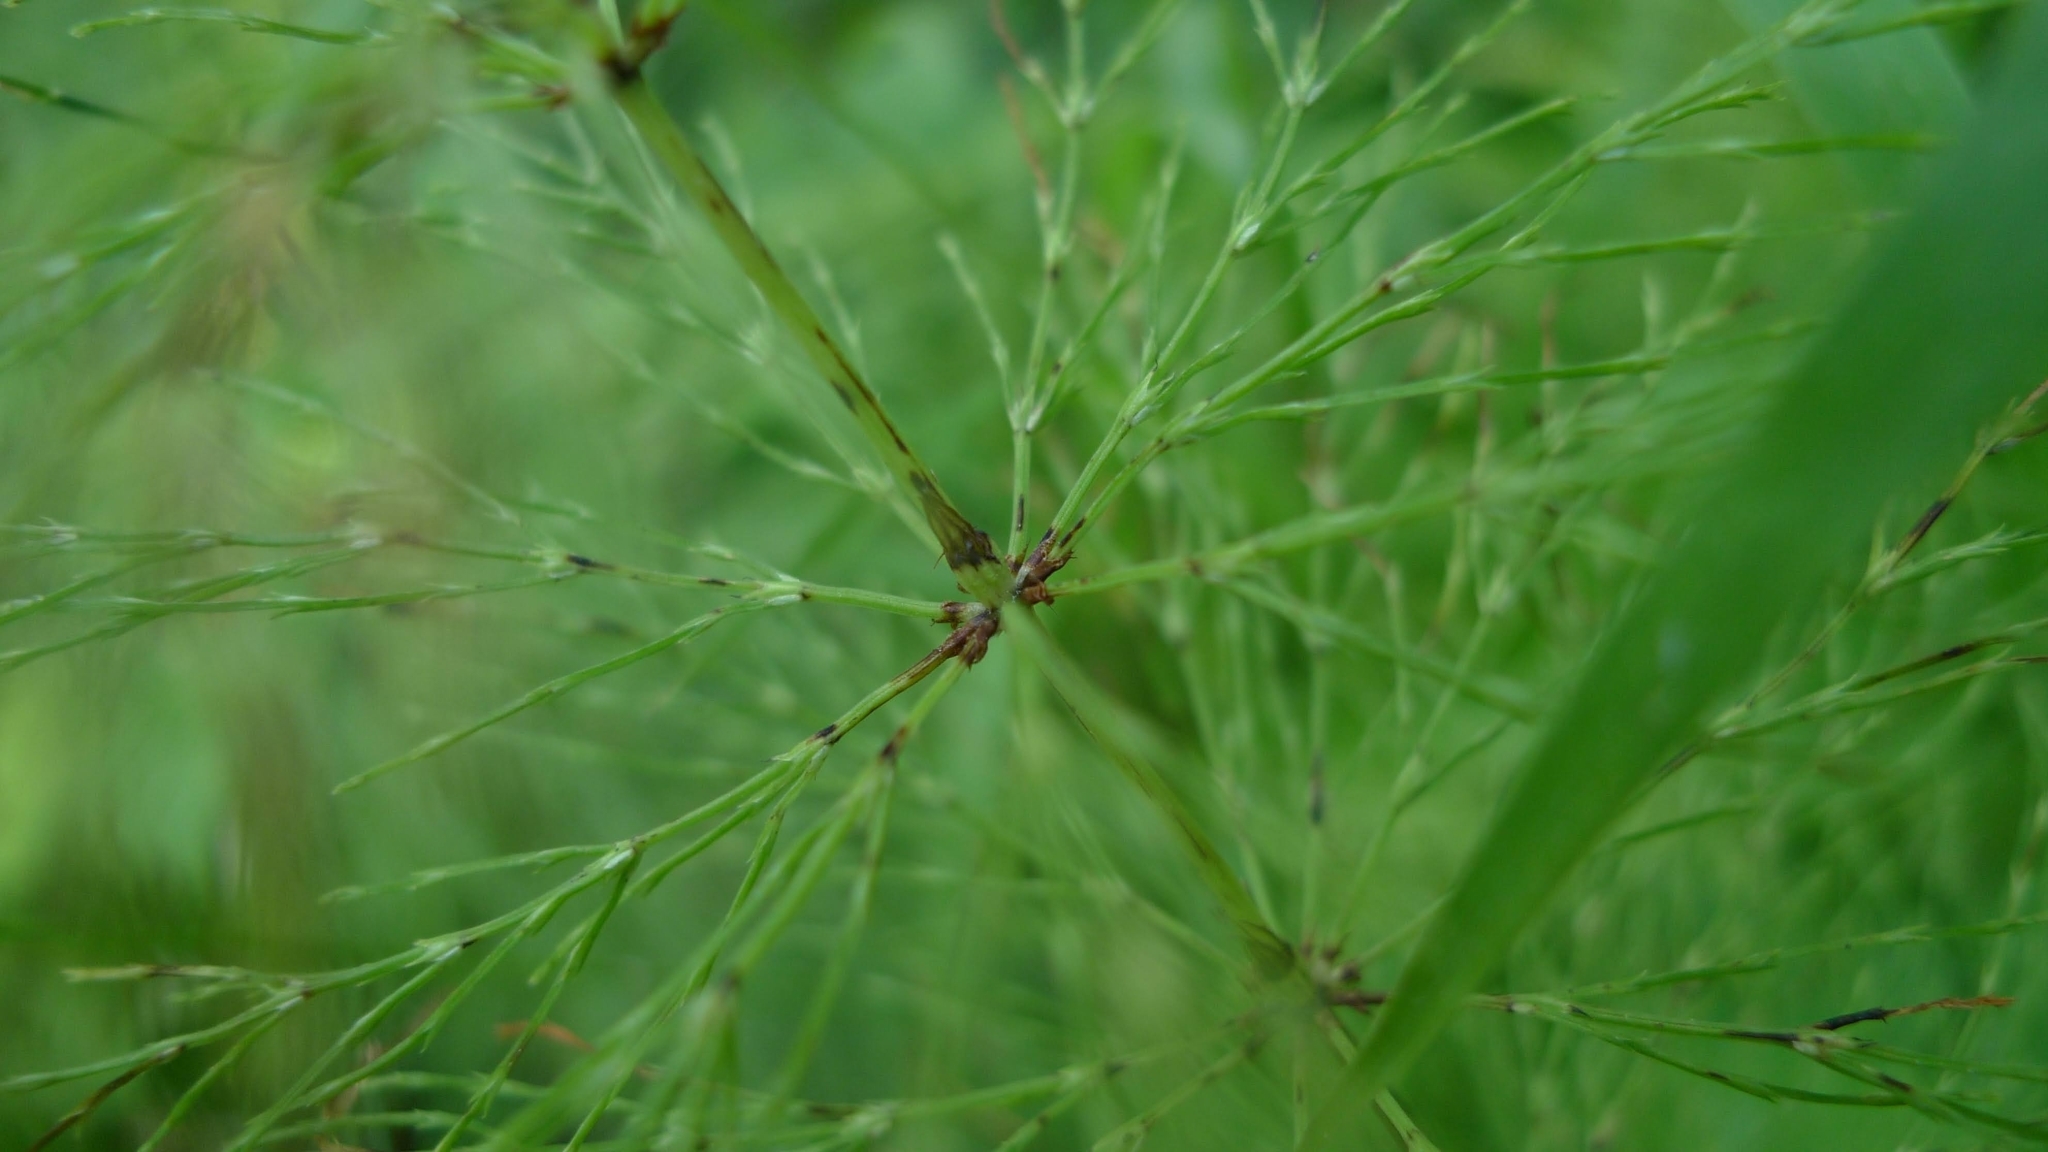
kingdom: Plantae
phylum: Tracheophyta
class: Polypodiopsida
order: Equisetales
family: Equisetaceae
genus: Equisetum
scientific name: Equisetum sylvaticum
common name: Wood horsetail
